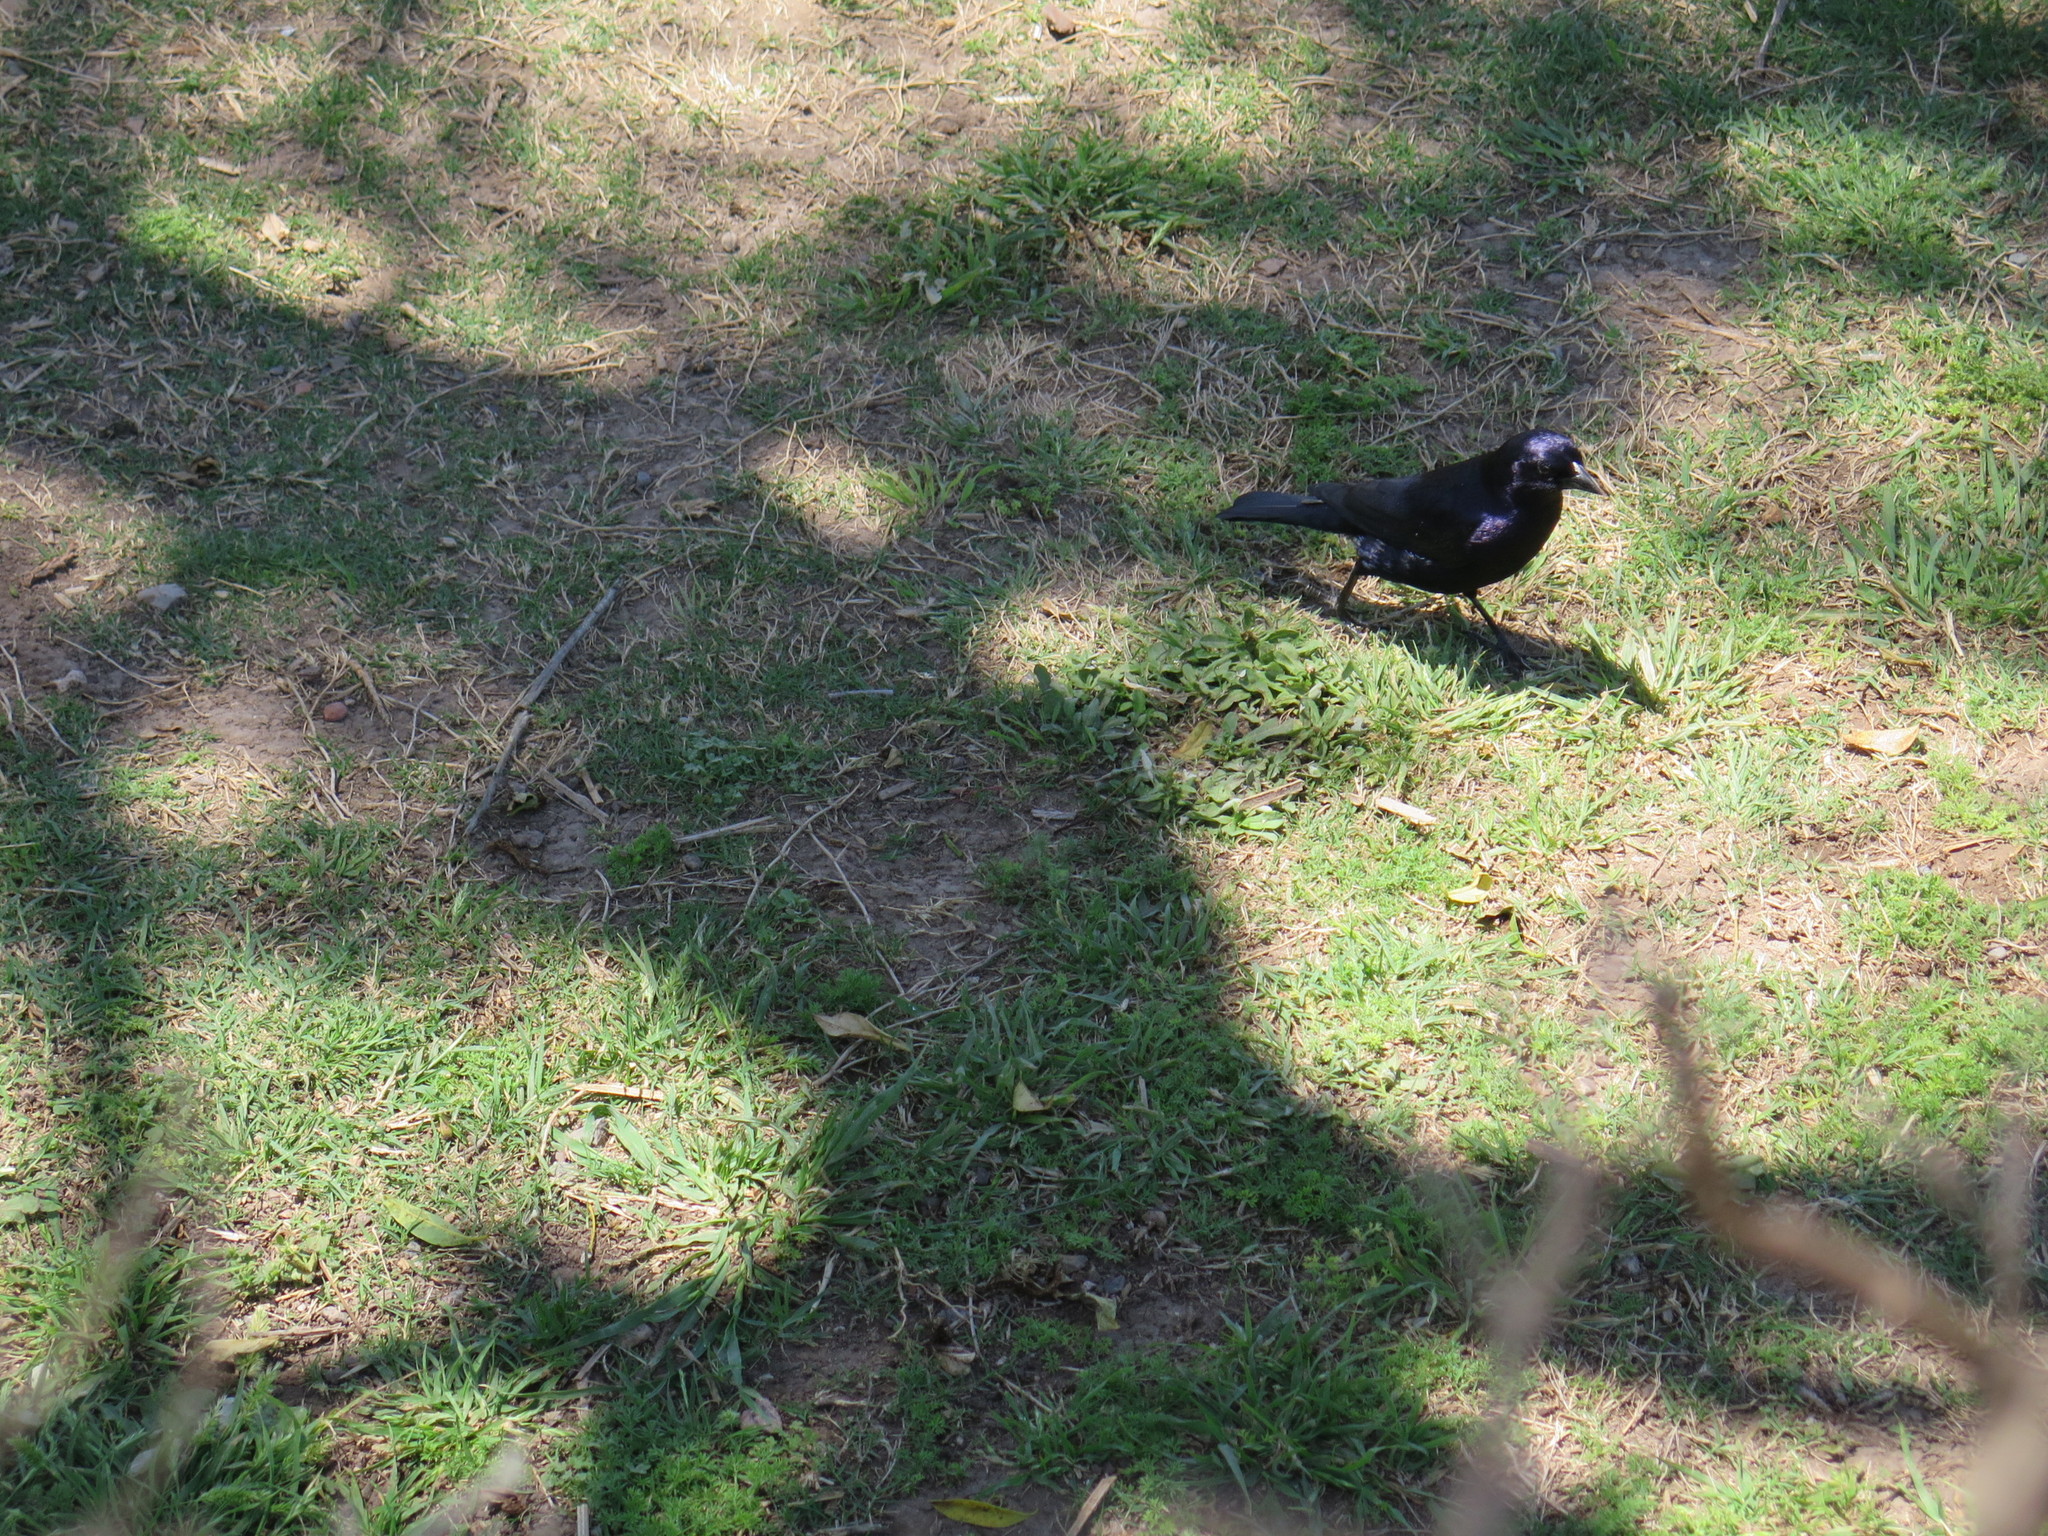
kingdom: Animalia
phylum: Chordata
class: Aves
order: Passeriformes
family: Icteridae
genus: Molothrus
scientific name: Molothrus bonariensis
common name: Shiny cowbird
